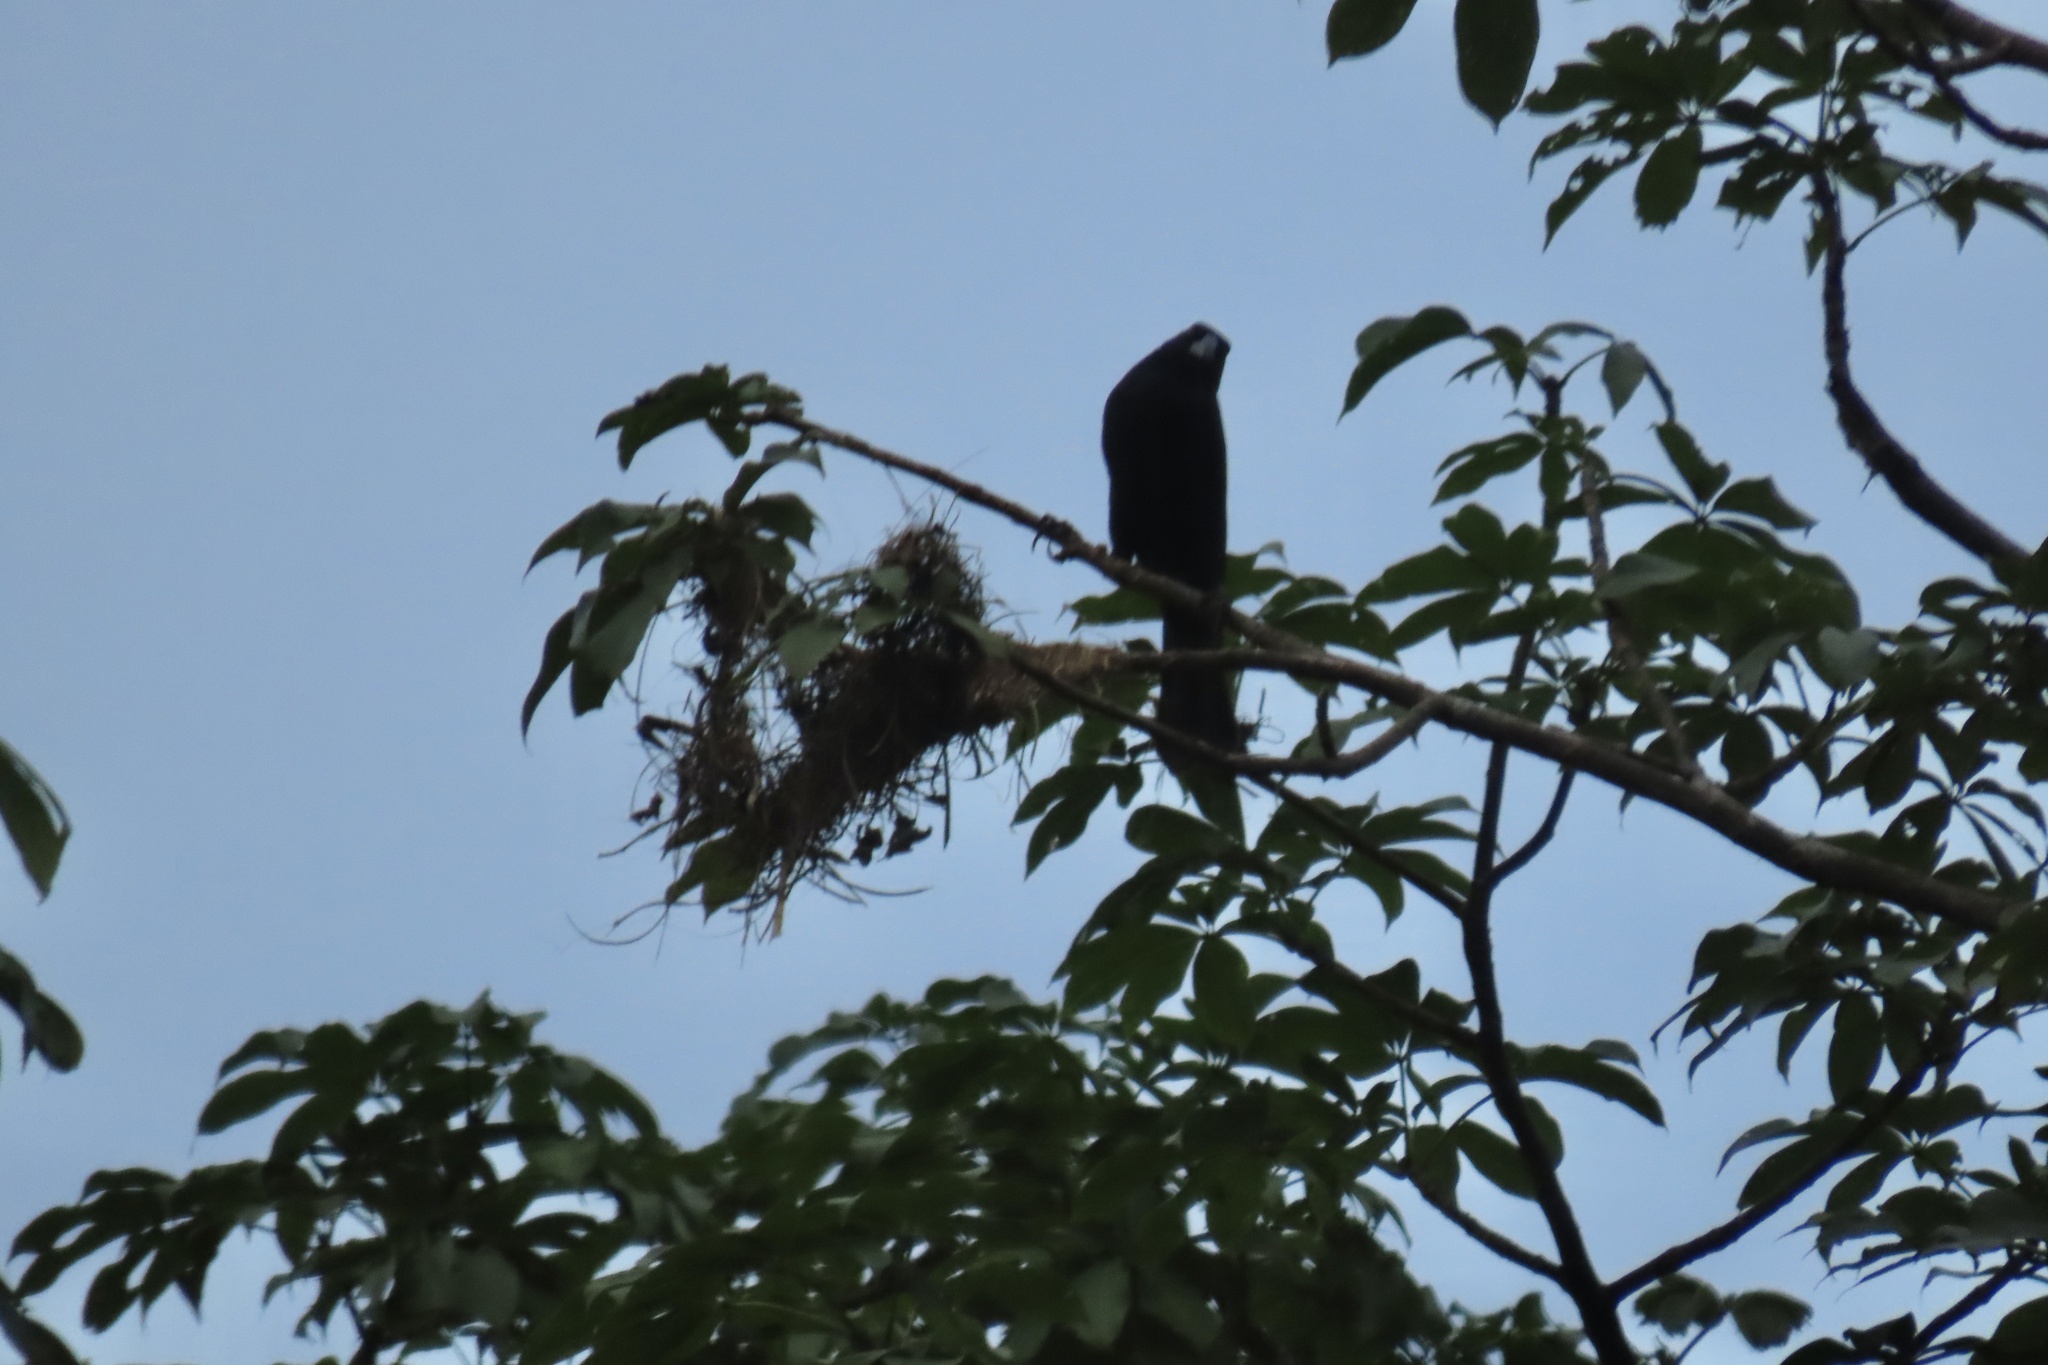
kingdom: Animalia
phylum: Chordata
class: Aves
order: Passeriformes
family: Icteridae
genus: Molothrus
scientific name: Molothrus oryzivorus
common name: Giant cowbird
